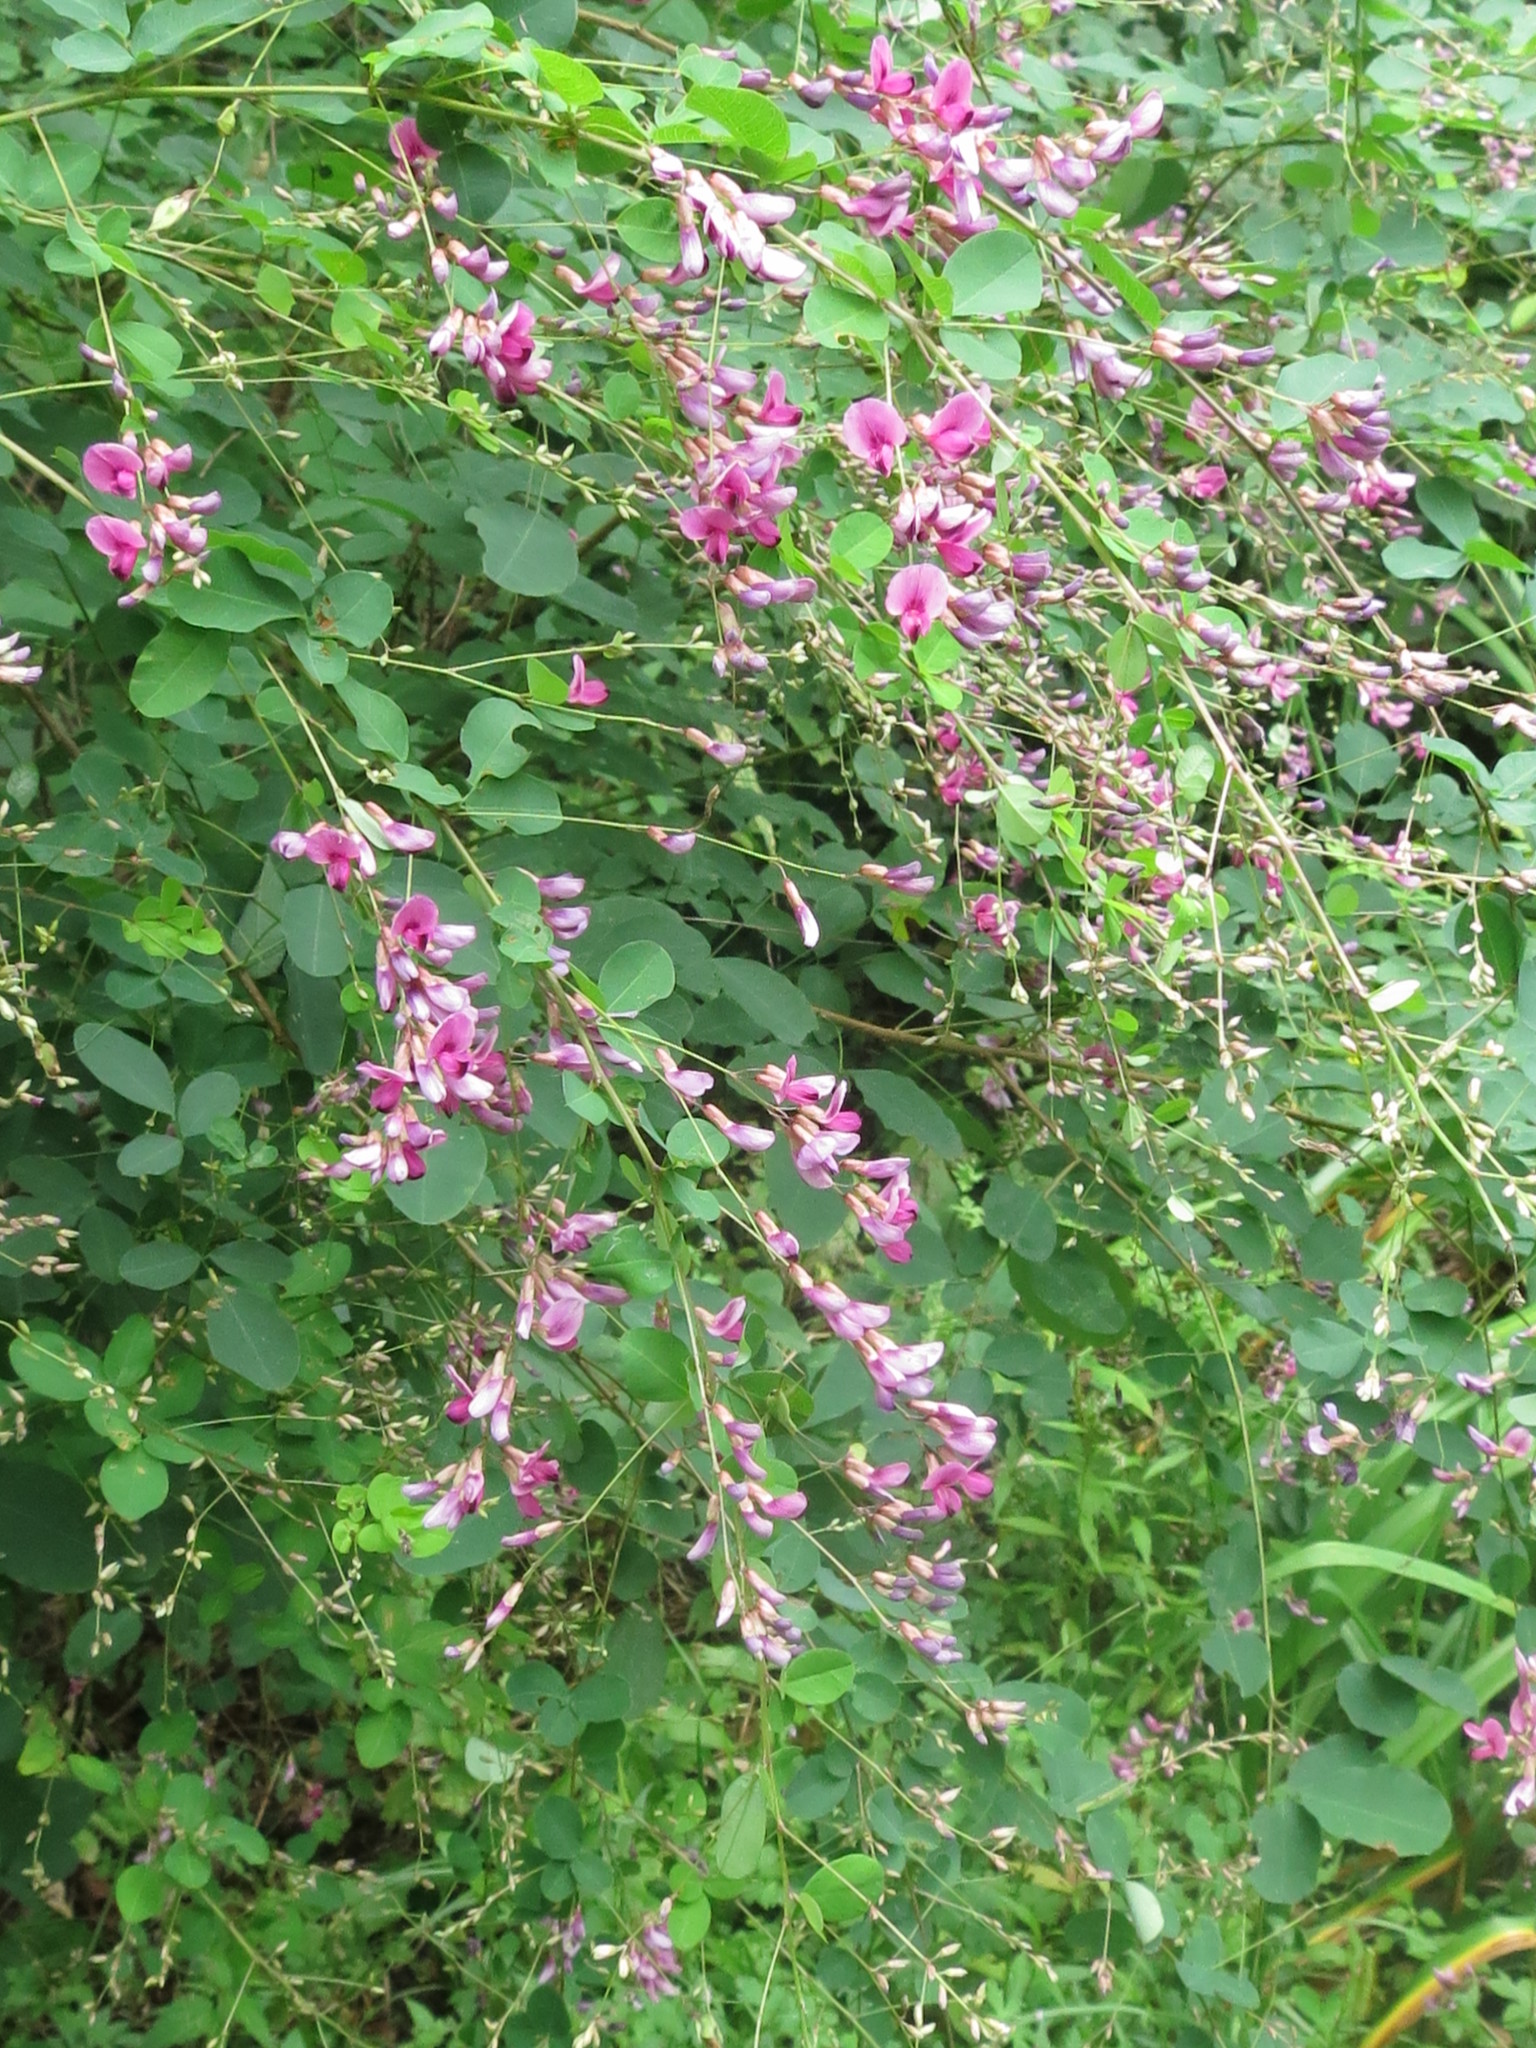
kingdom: Plantae
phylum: Tracheophyta
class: Magnoliopsida
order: Fabales
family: Fabaceae
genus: Lespedeza
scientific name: Lespedeza bicolor
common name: Shrub lespedeza
